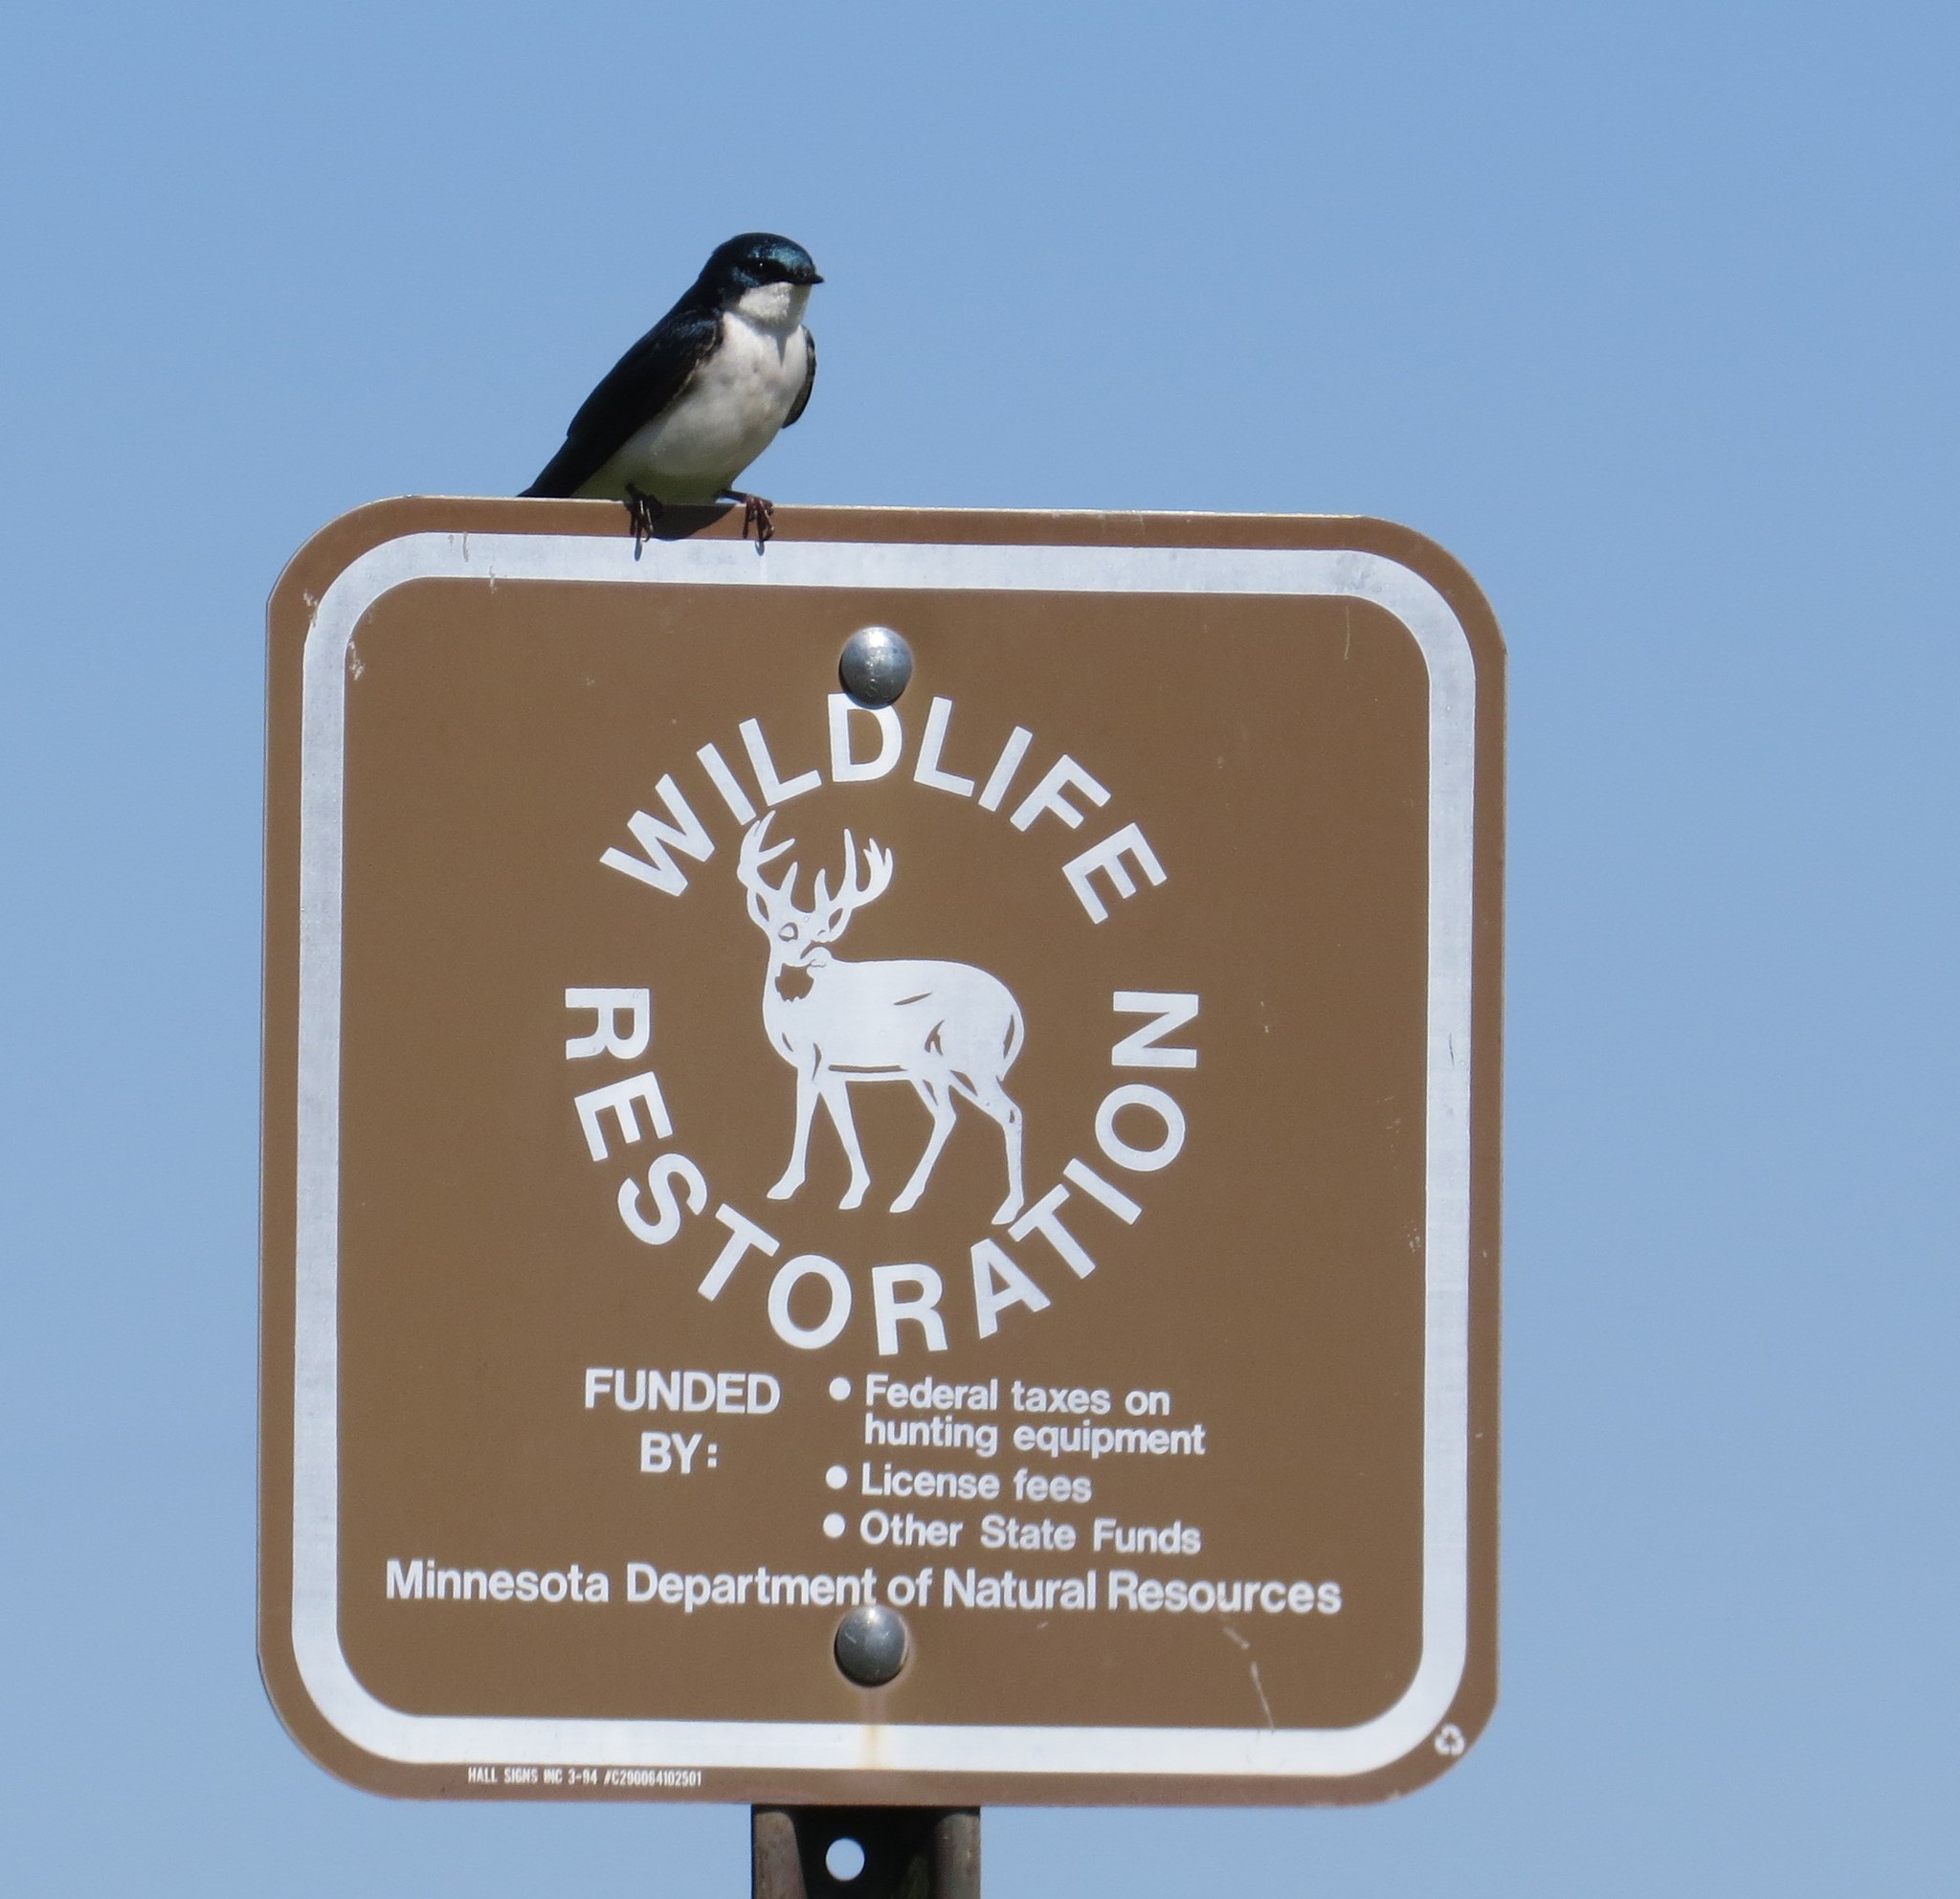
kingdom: Animalia
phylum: Chordata
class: Aves
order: Passeriformes
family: Hirundinidae
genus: Tachycineta
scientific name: Tachycineta bicolor
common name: Tree swallow
